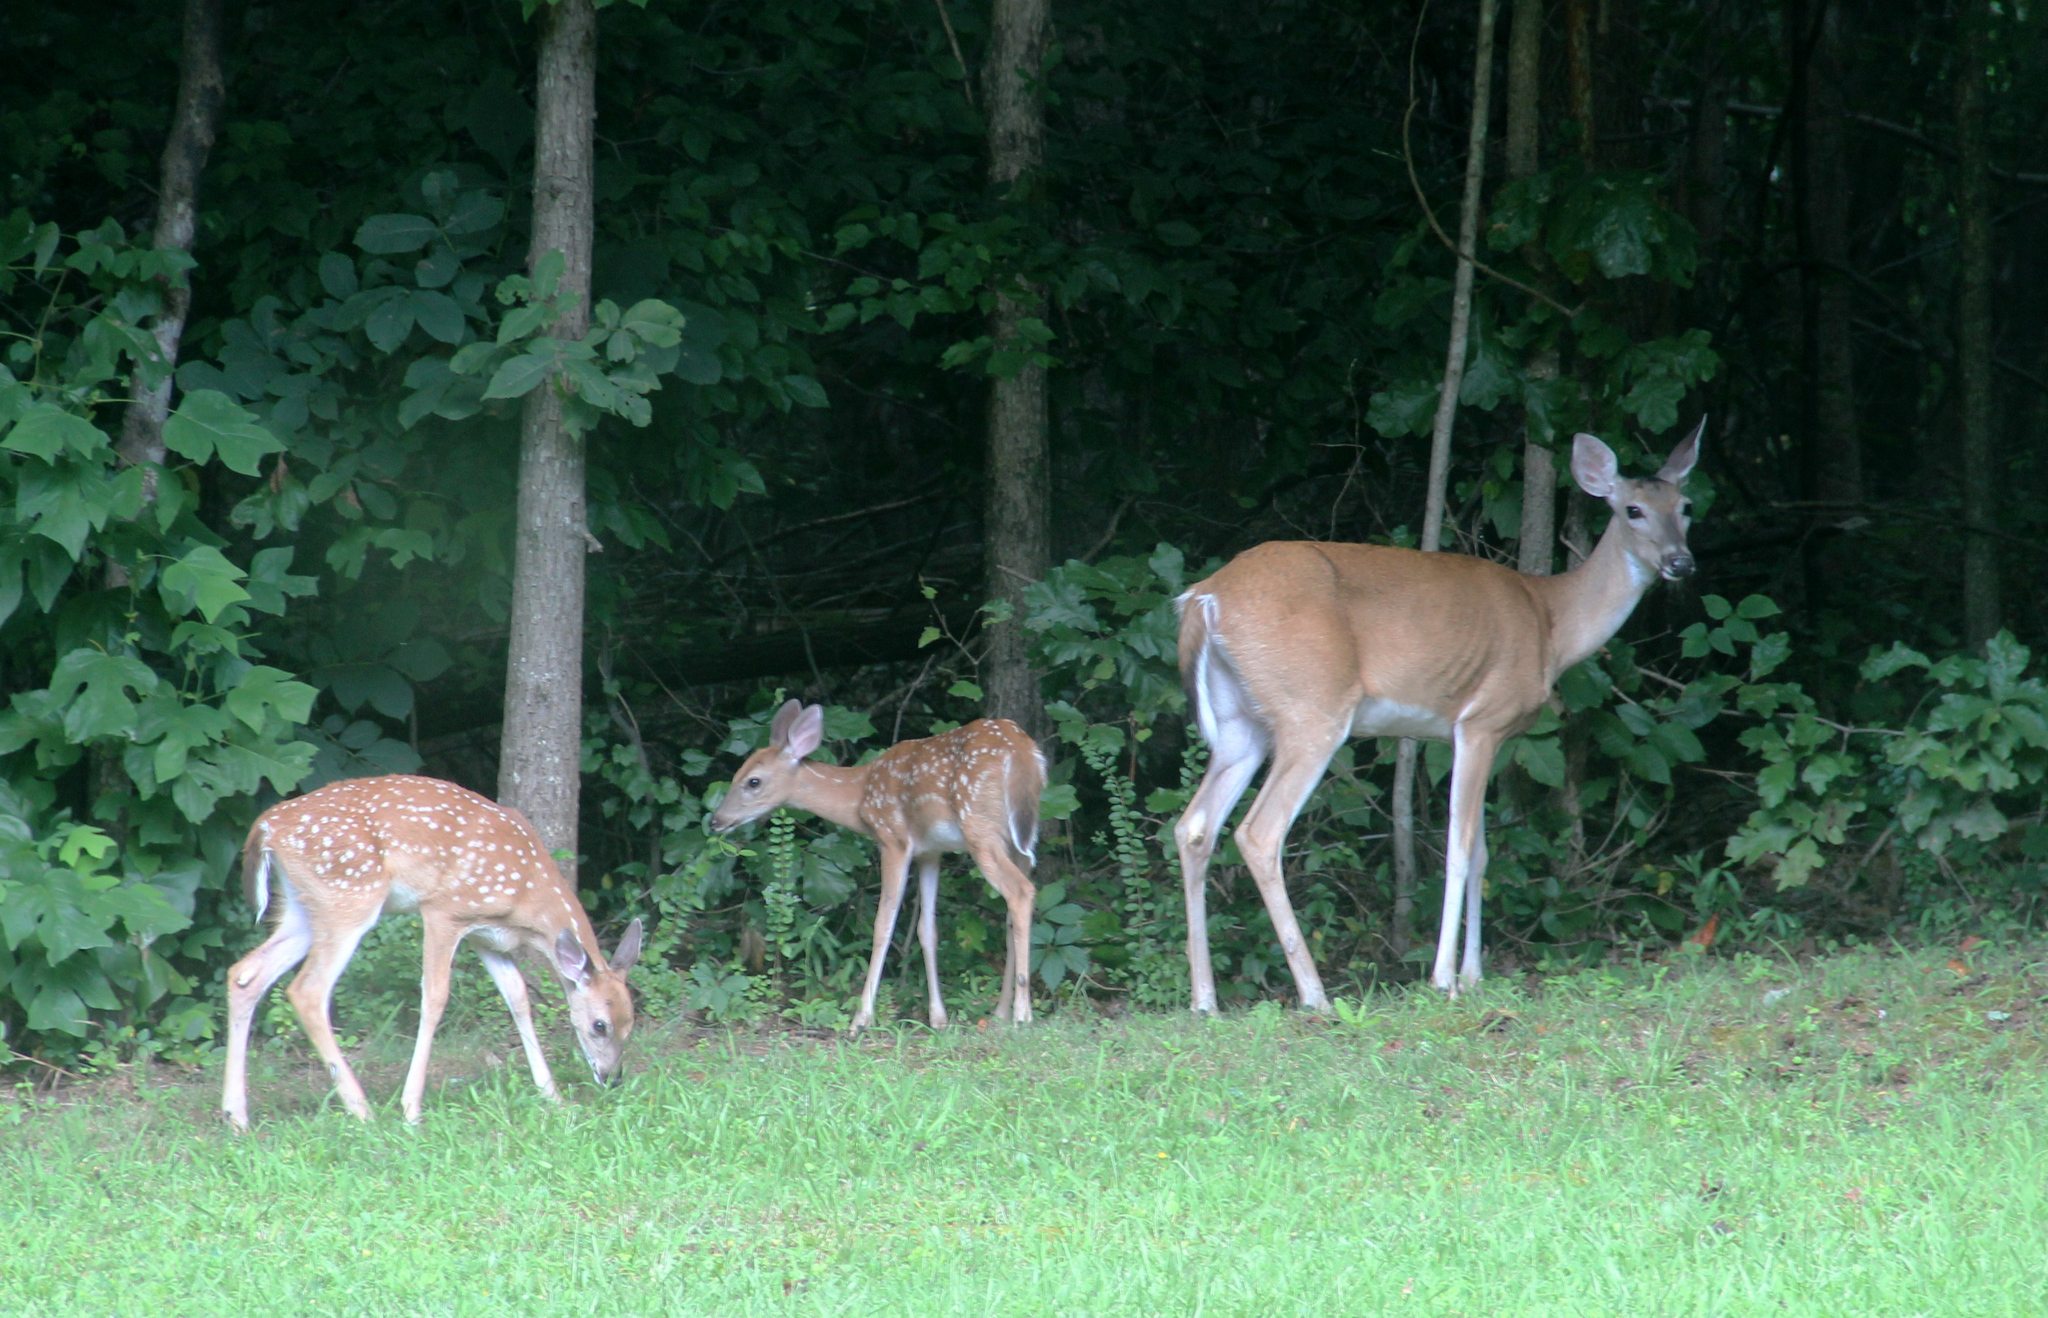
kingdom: Animalia
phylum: Chordata
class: Mammalia
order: Artiodactyla
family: Cervidae
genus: Odocoileus
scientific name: Odocoileus virginianus
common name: White-tailed deer
